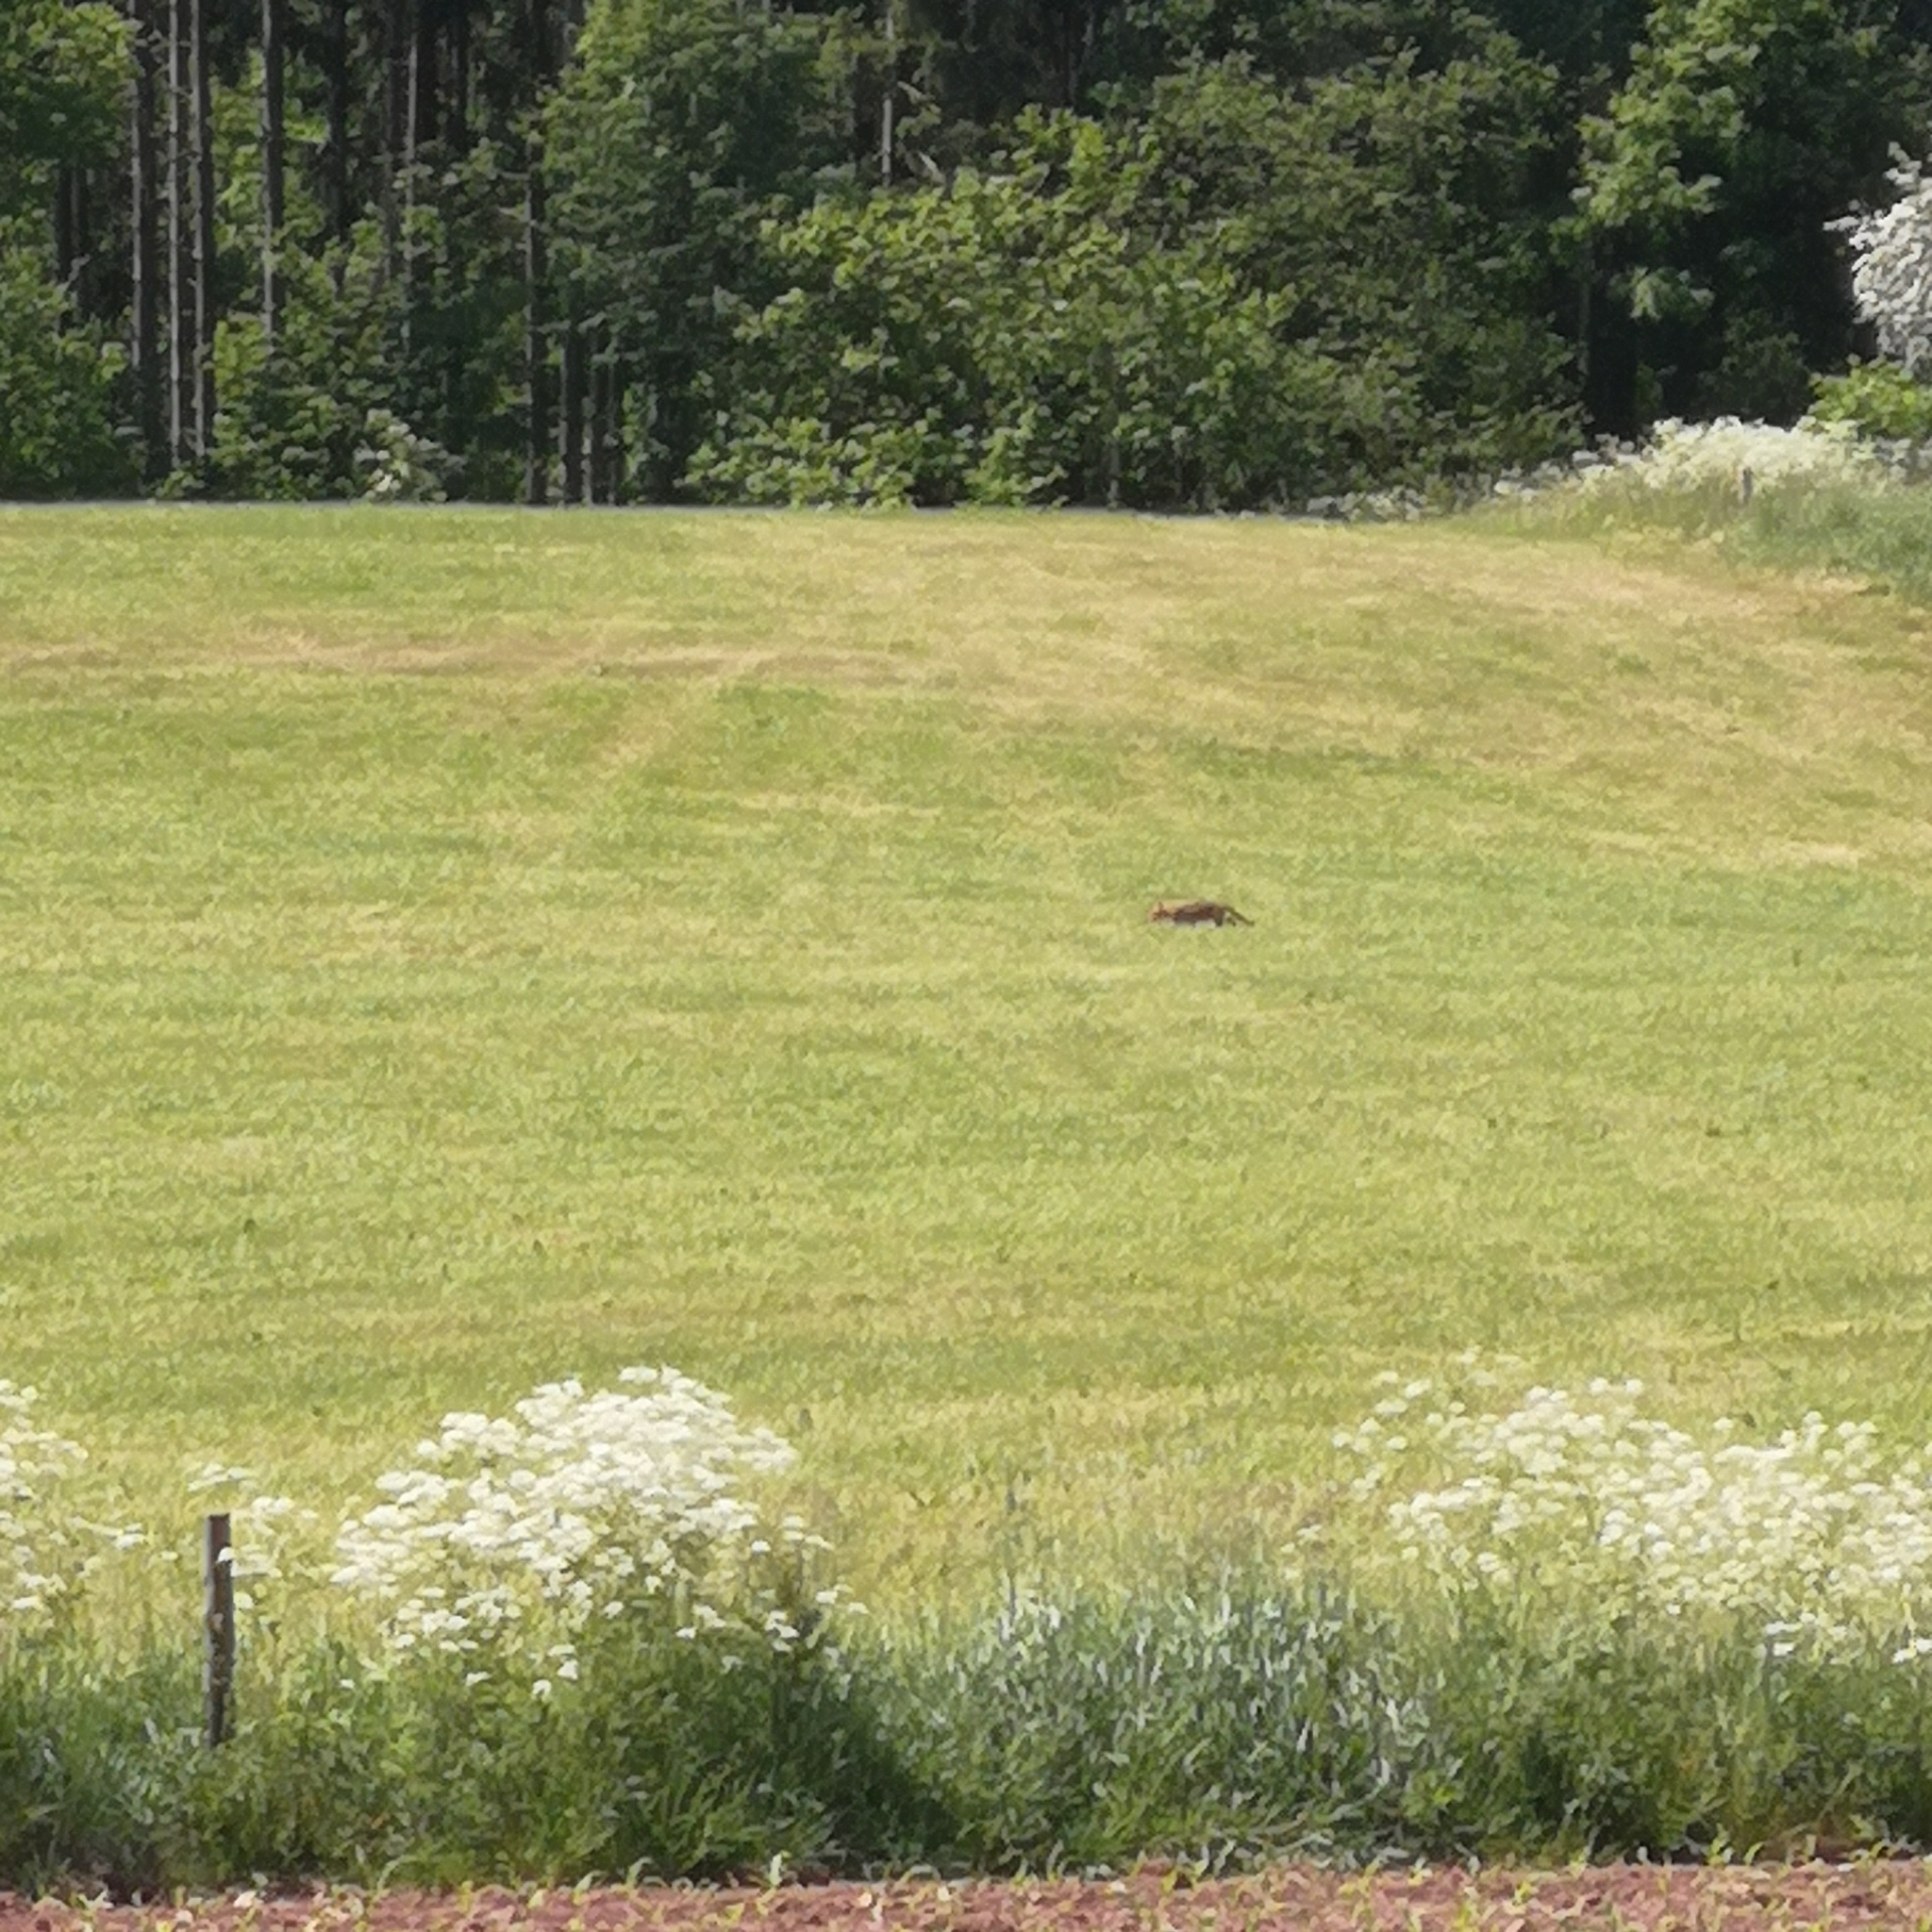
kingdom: Animalia
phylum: Chordata
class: Mammalia
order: Carnivora
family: Canidae
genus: Vulpes
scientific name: Vulpes vulpes
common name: Red fox
